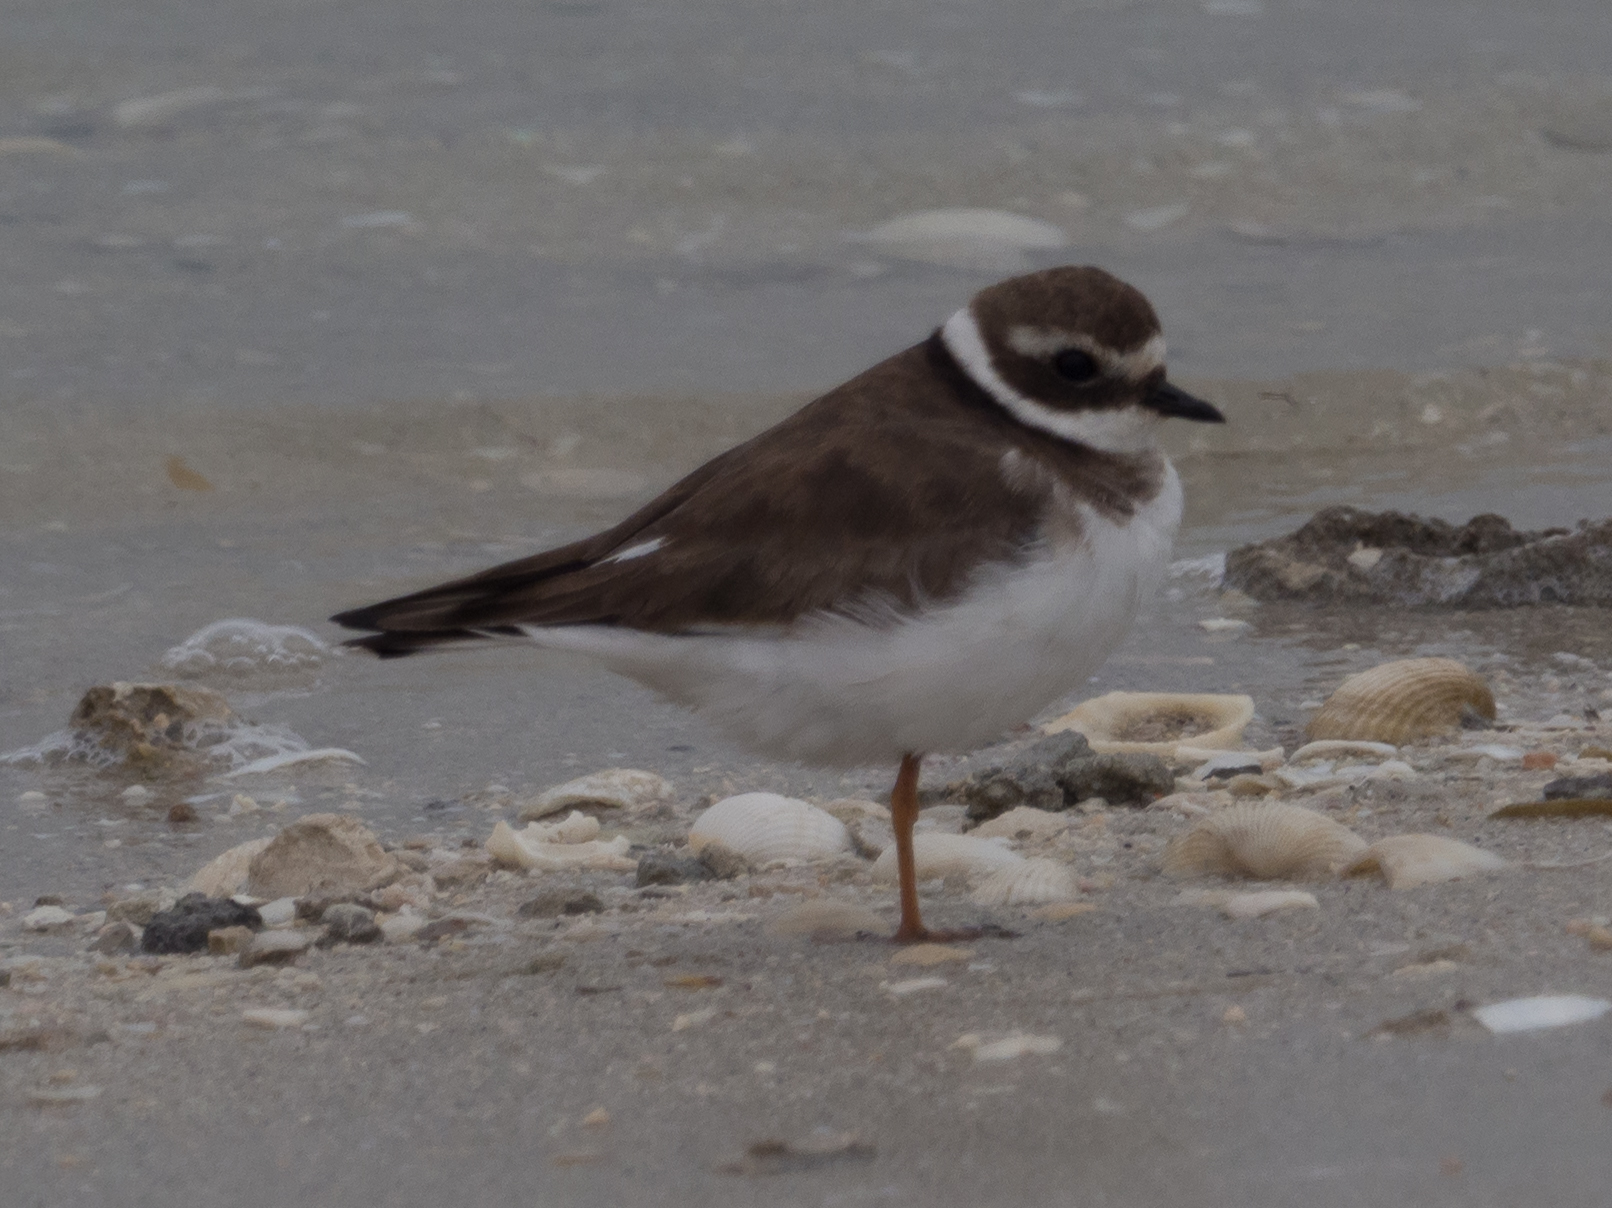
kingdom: Animalia
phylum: Chordata
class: Aves
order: Charadriiformes
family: Charadriidae
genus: Charadrius
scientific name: Charadrius hiaticula
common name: Common ringed plover
